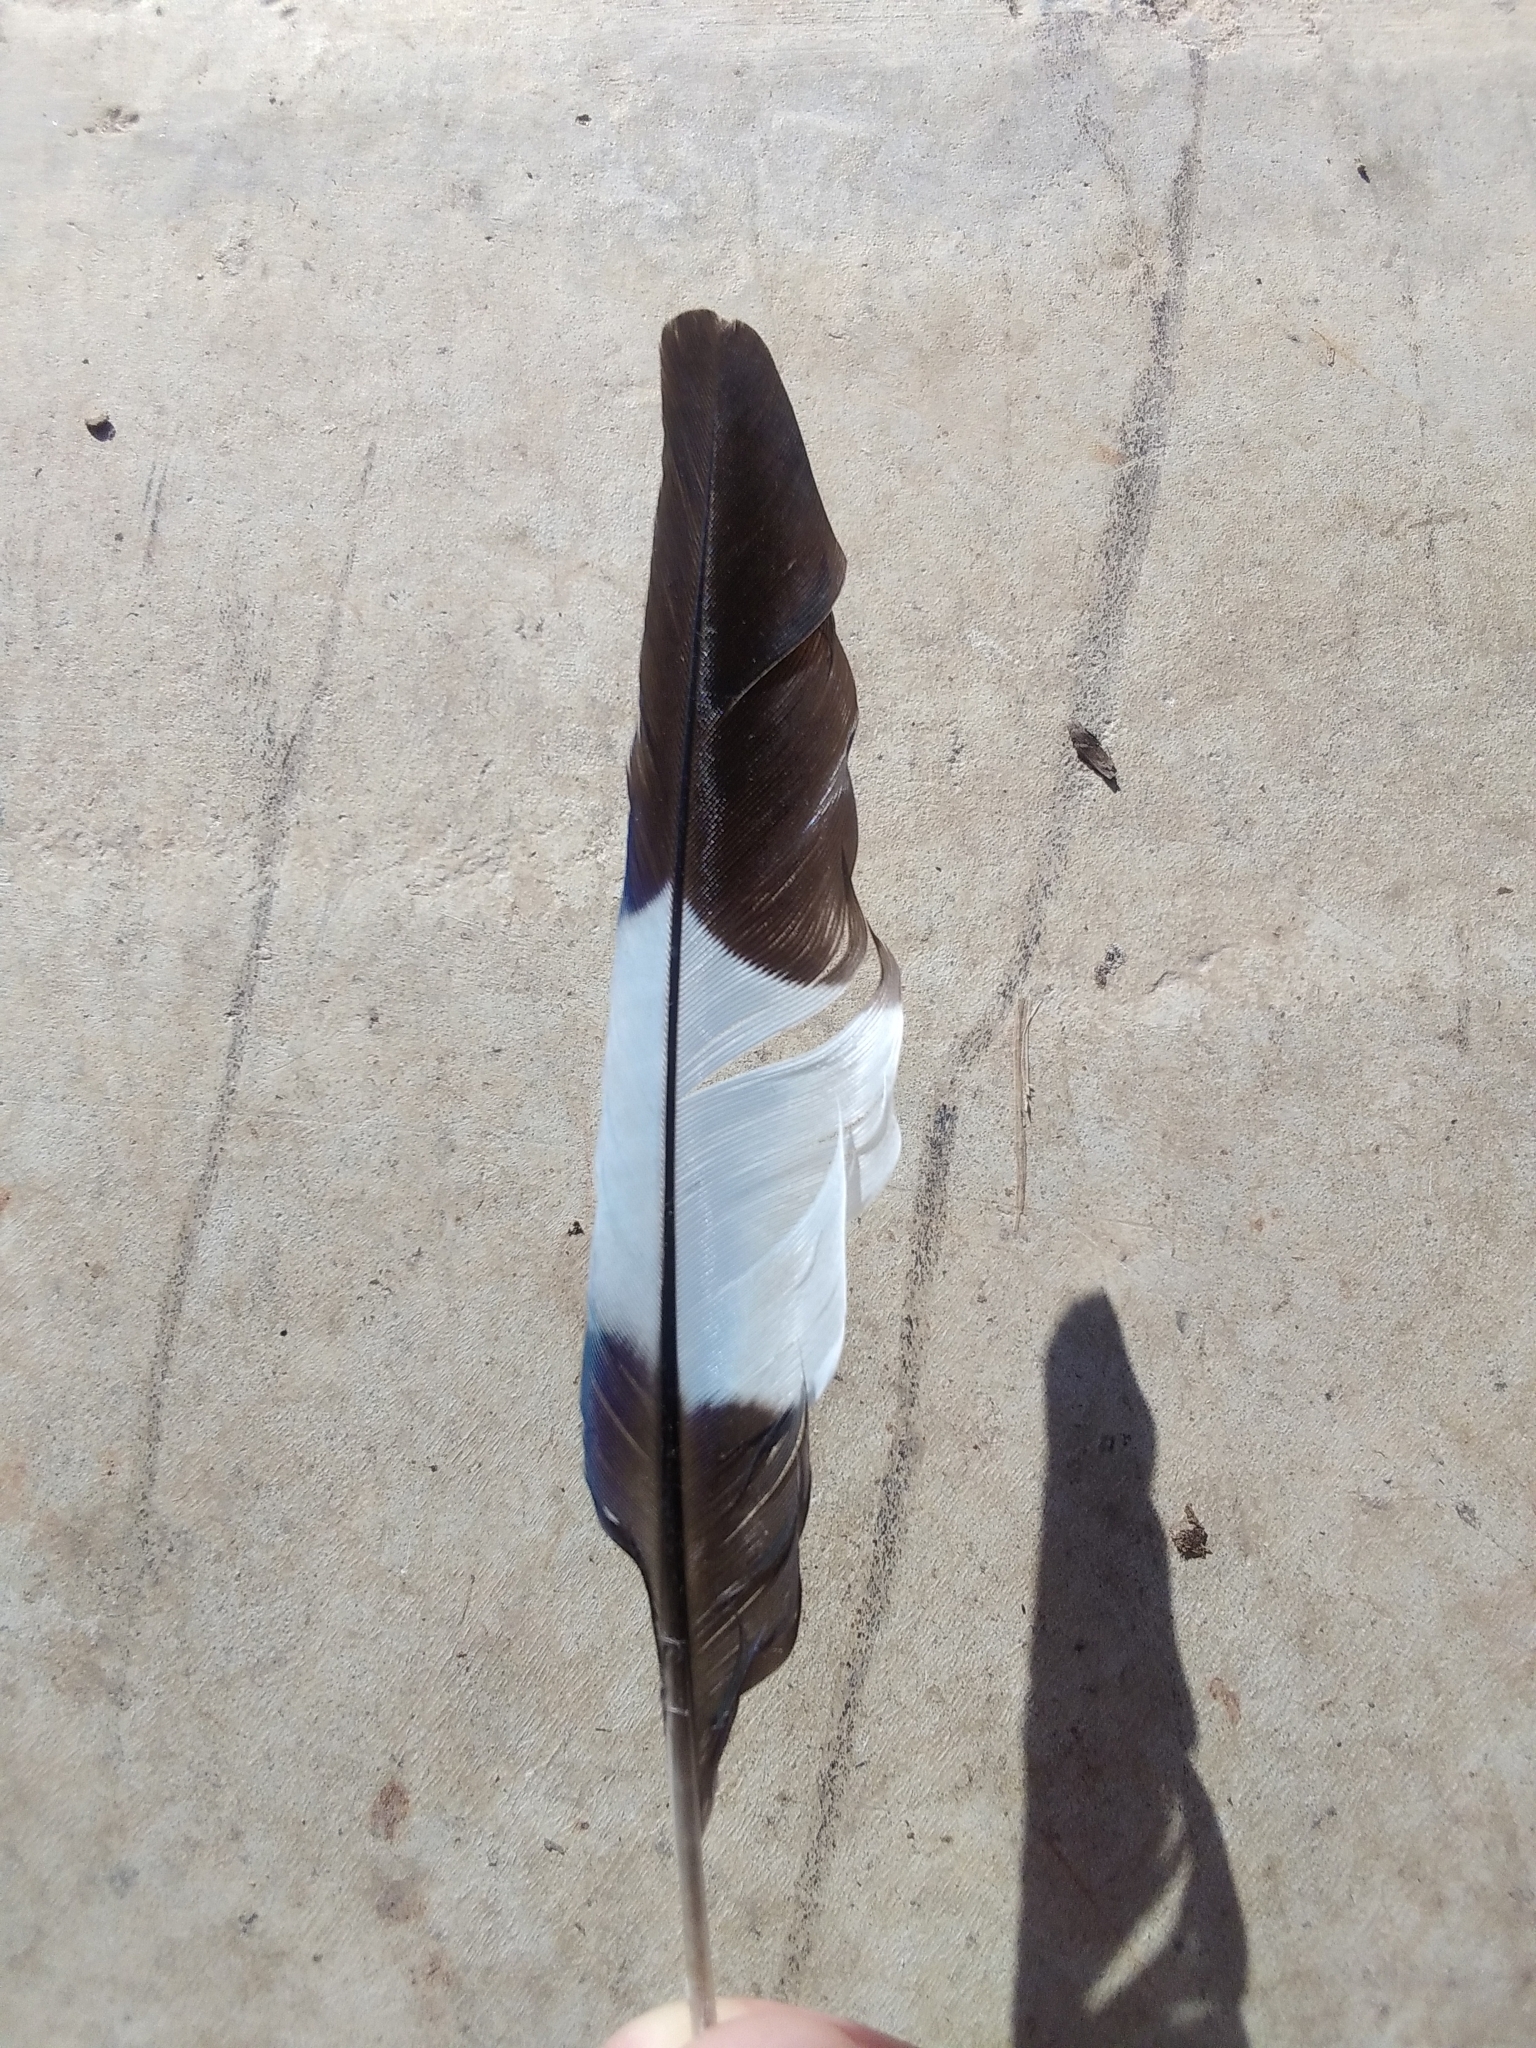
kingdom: Animalia
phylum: Chordata
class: Aves
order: Coraciiformes
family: Coraciidae
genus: Eurystomus
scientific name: Eurystomus orientalis
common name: Oriental dollarbird
